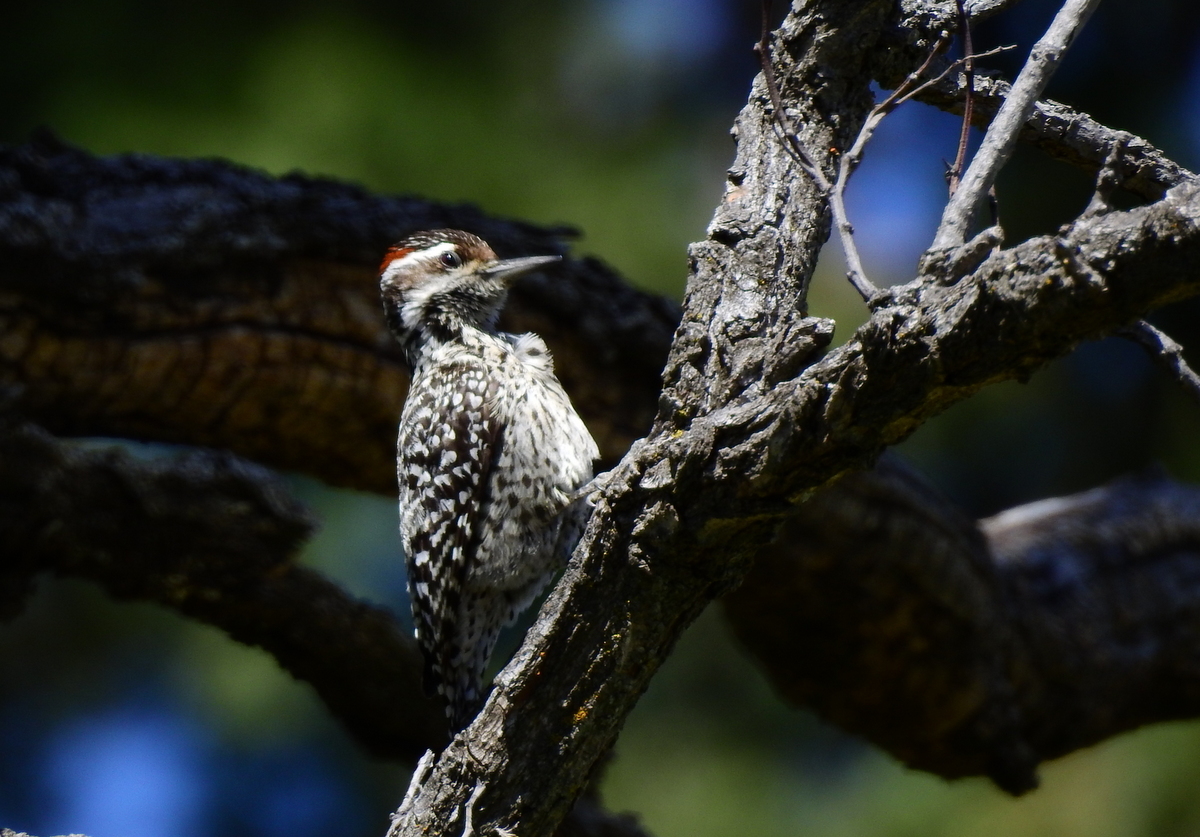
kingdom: Animalia
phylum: Chordata
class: Aves
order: Piciformes
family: Picidae
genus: Veniliornis
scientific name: Veniliornis mixtus
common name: Checkered woodpecker
